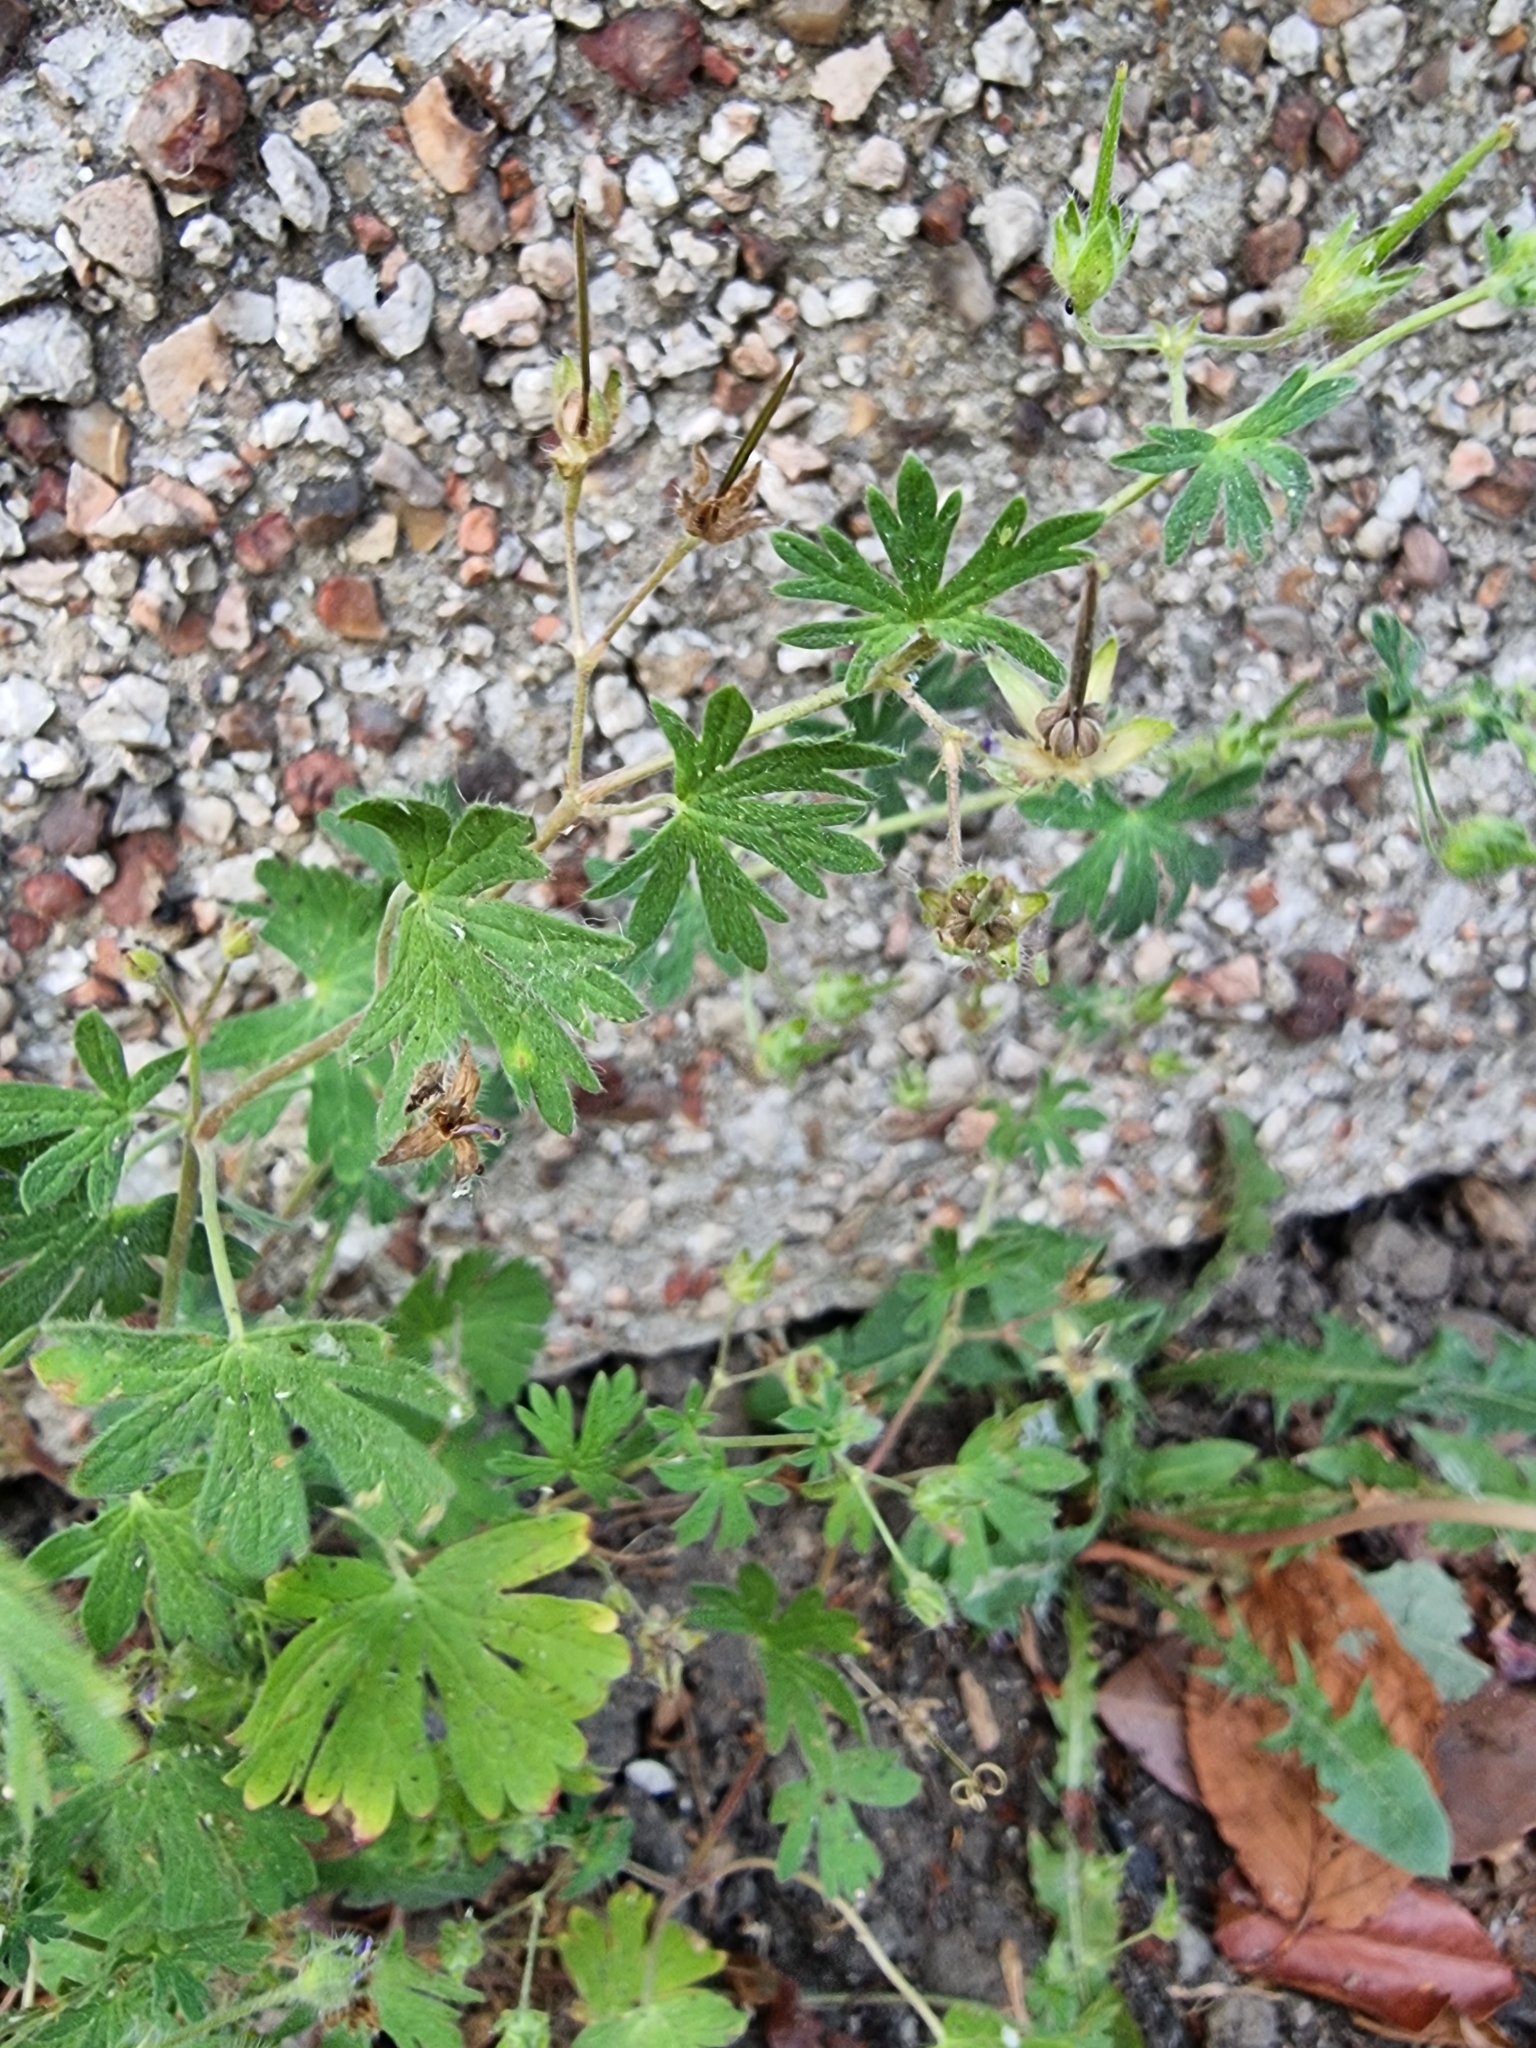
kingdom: Plantae
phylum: Tracheophyta
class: Magnoliopsida
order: Geraniales
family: Geraniaceae
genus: Geranium
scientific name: Geranium pusillum
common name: Small geranium
